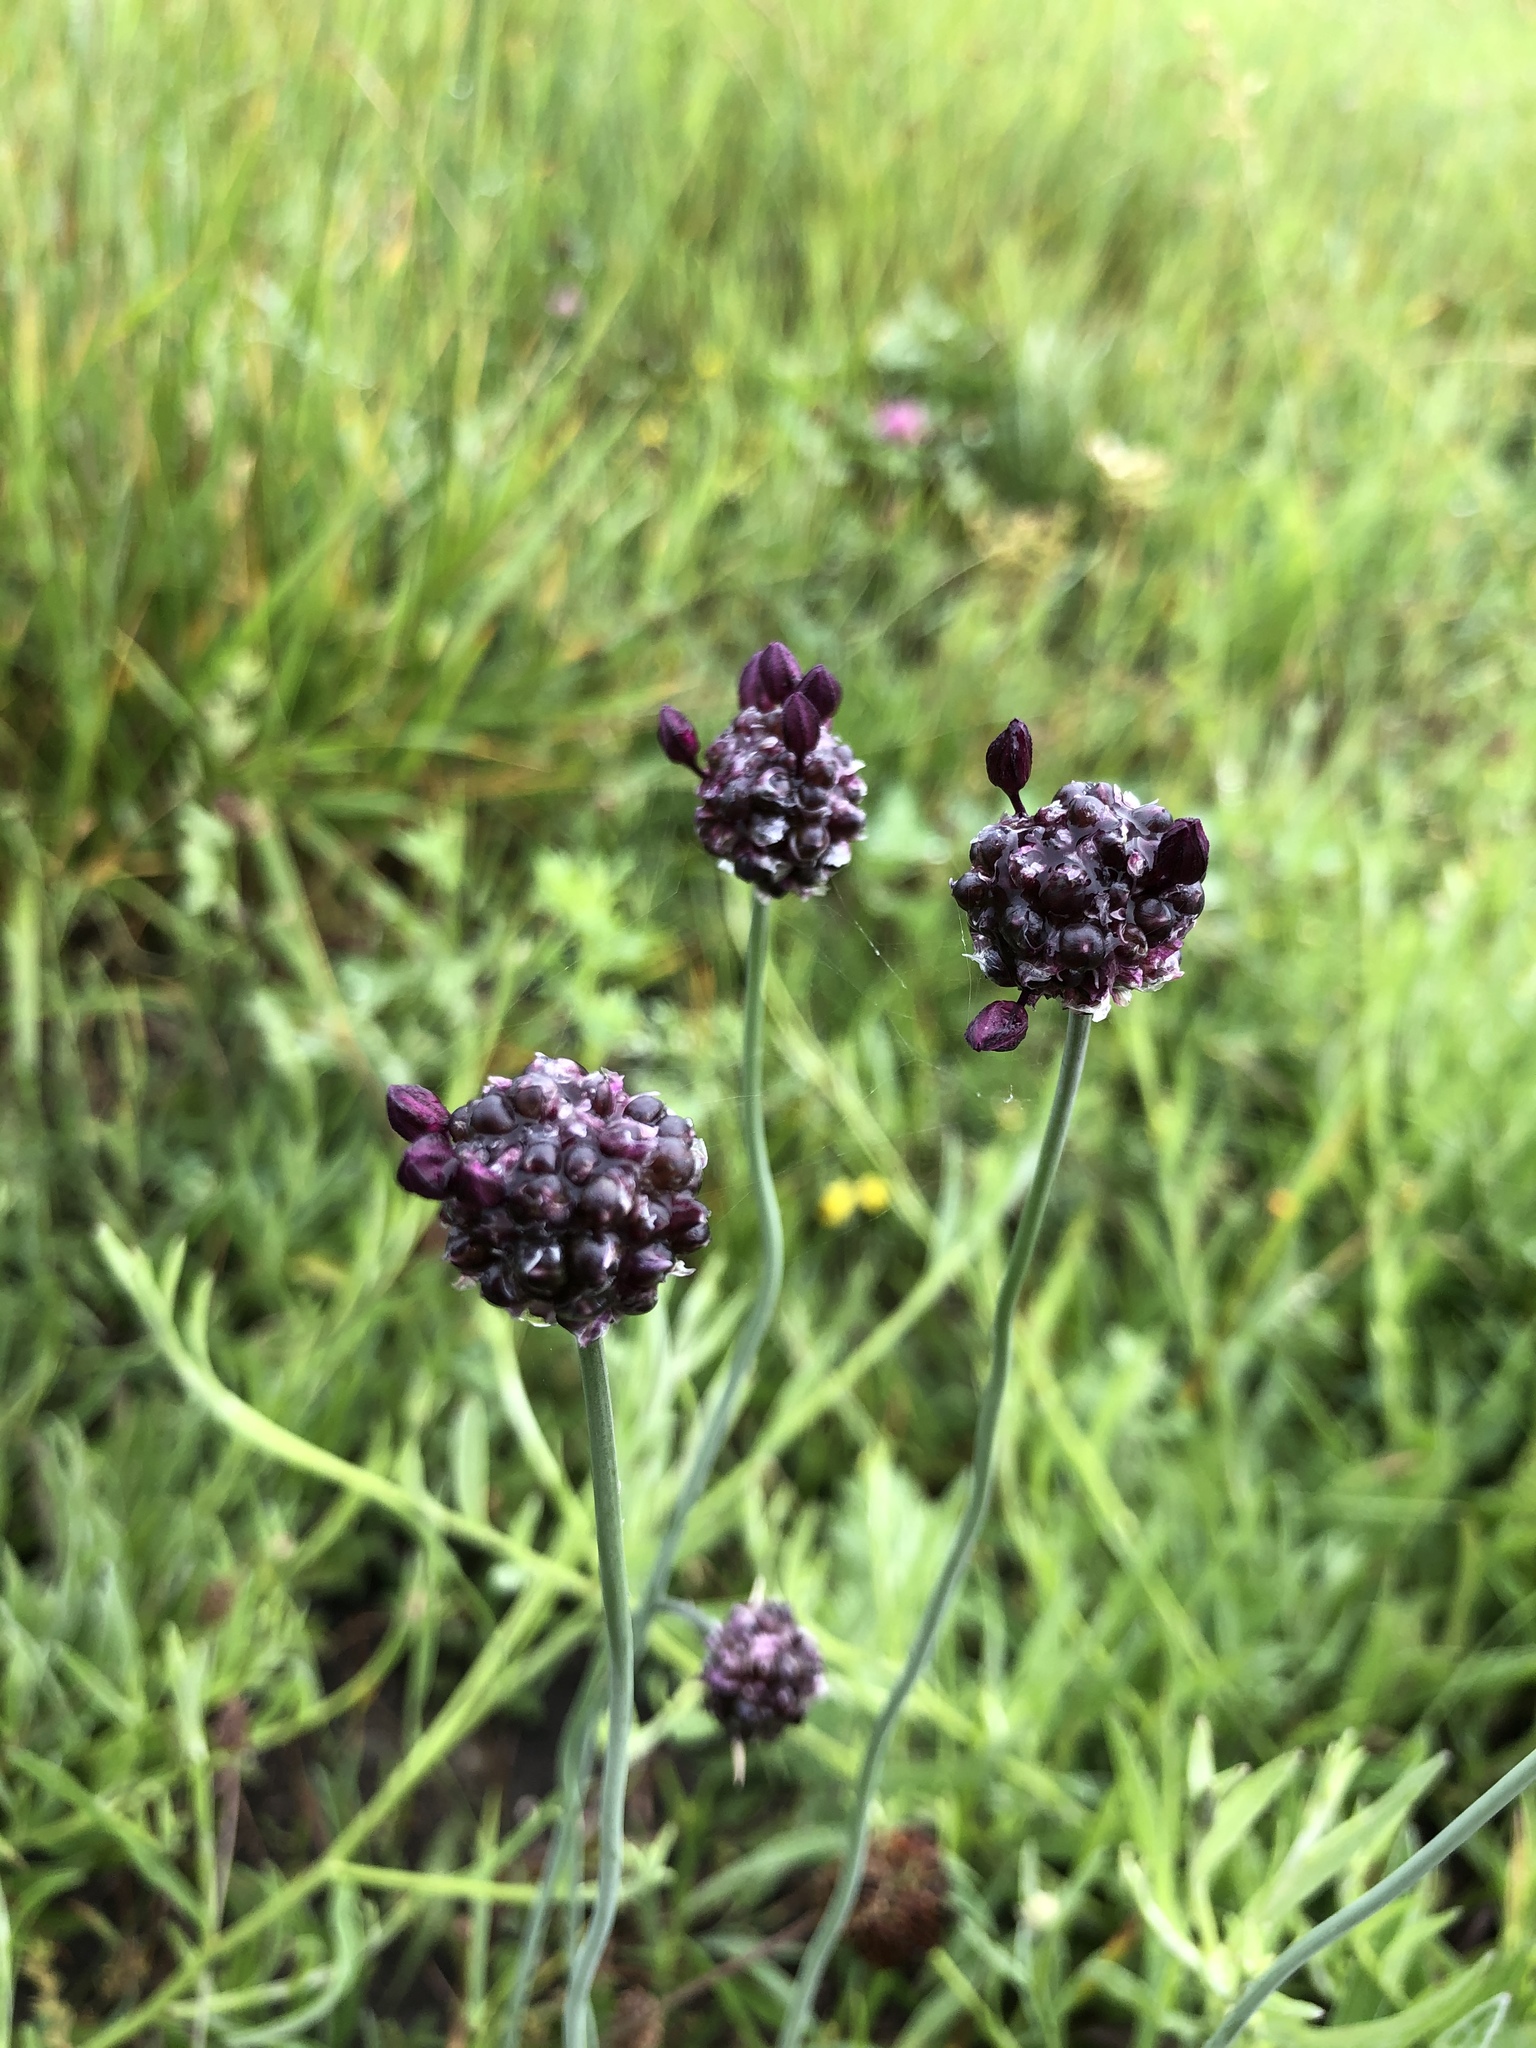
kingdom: Plantae
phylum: Tracheophyta
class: Liliopsida
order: Asparagales
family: Amaryllidaceae
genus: Allium
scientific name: Allium scorodoprasum
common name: Sand leek
